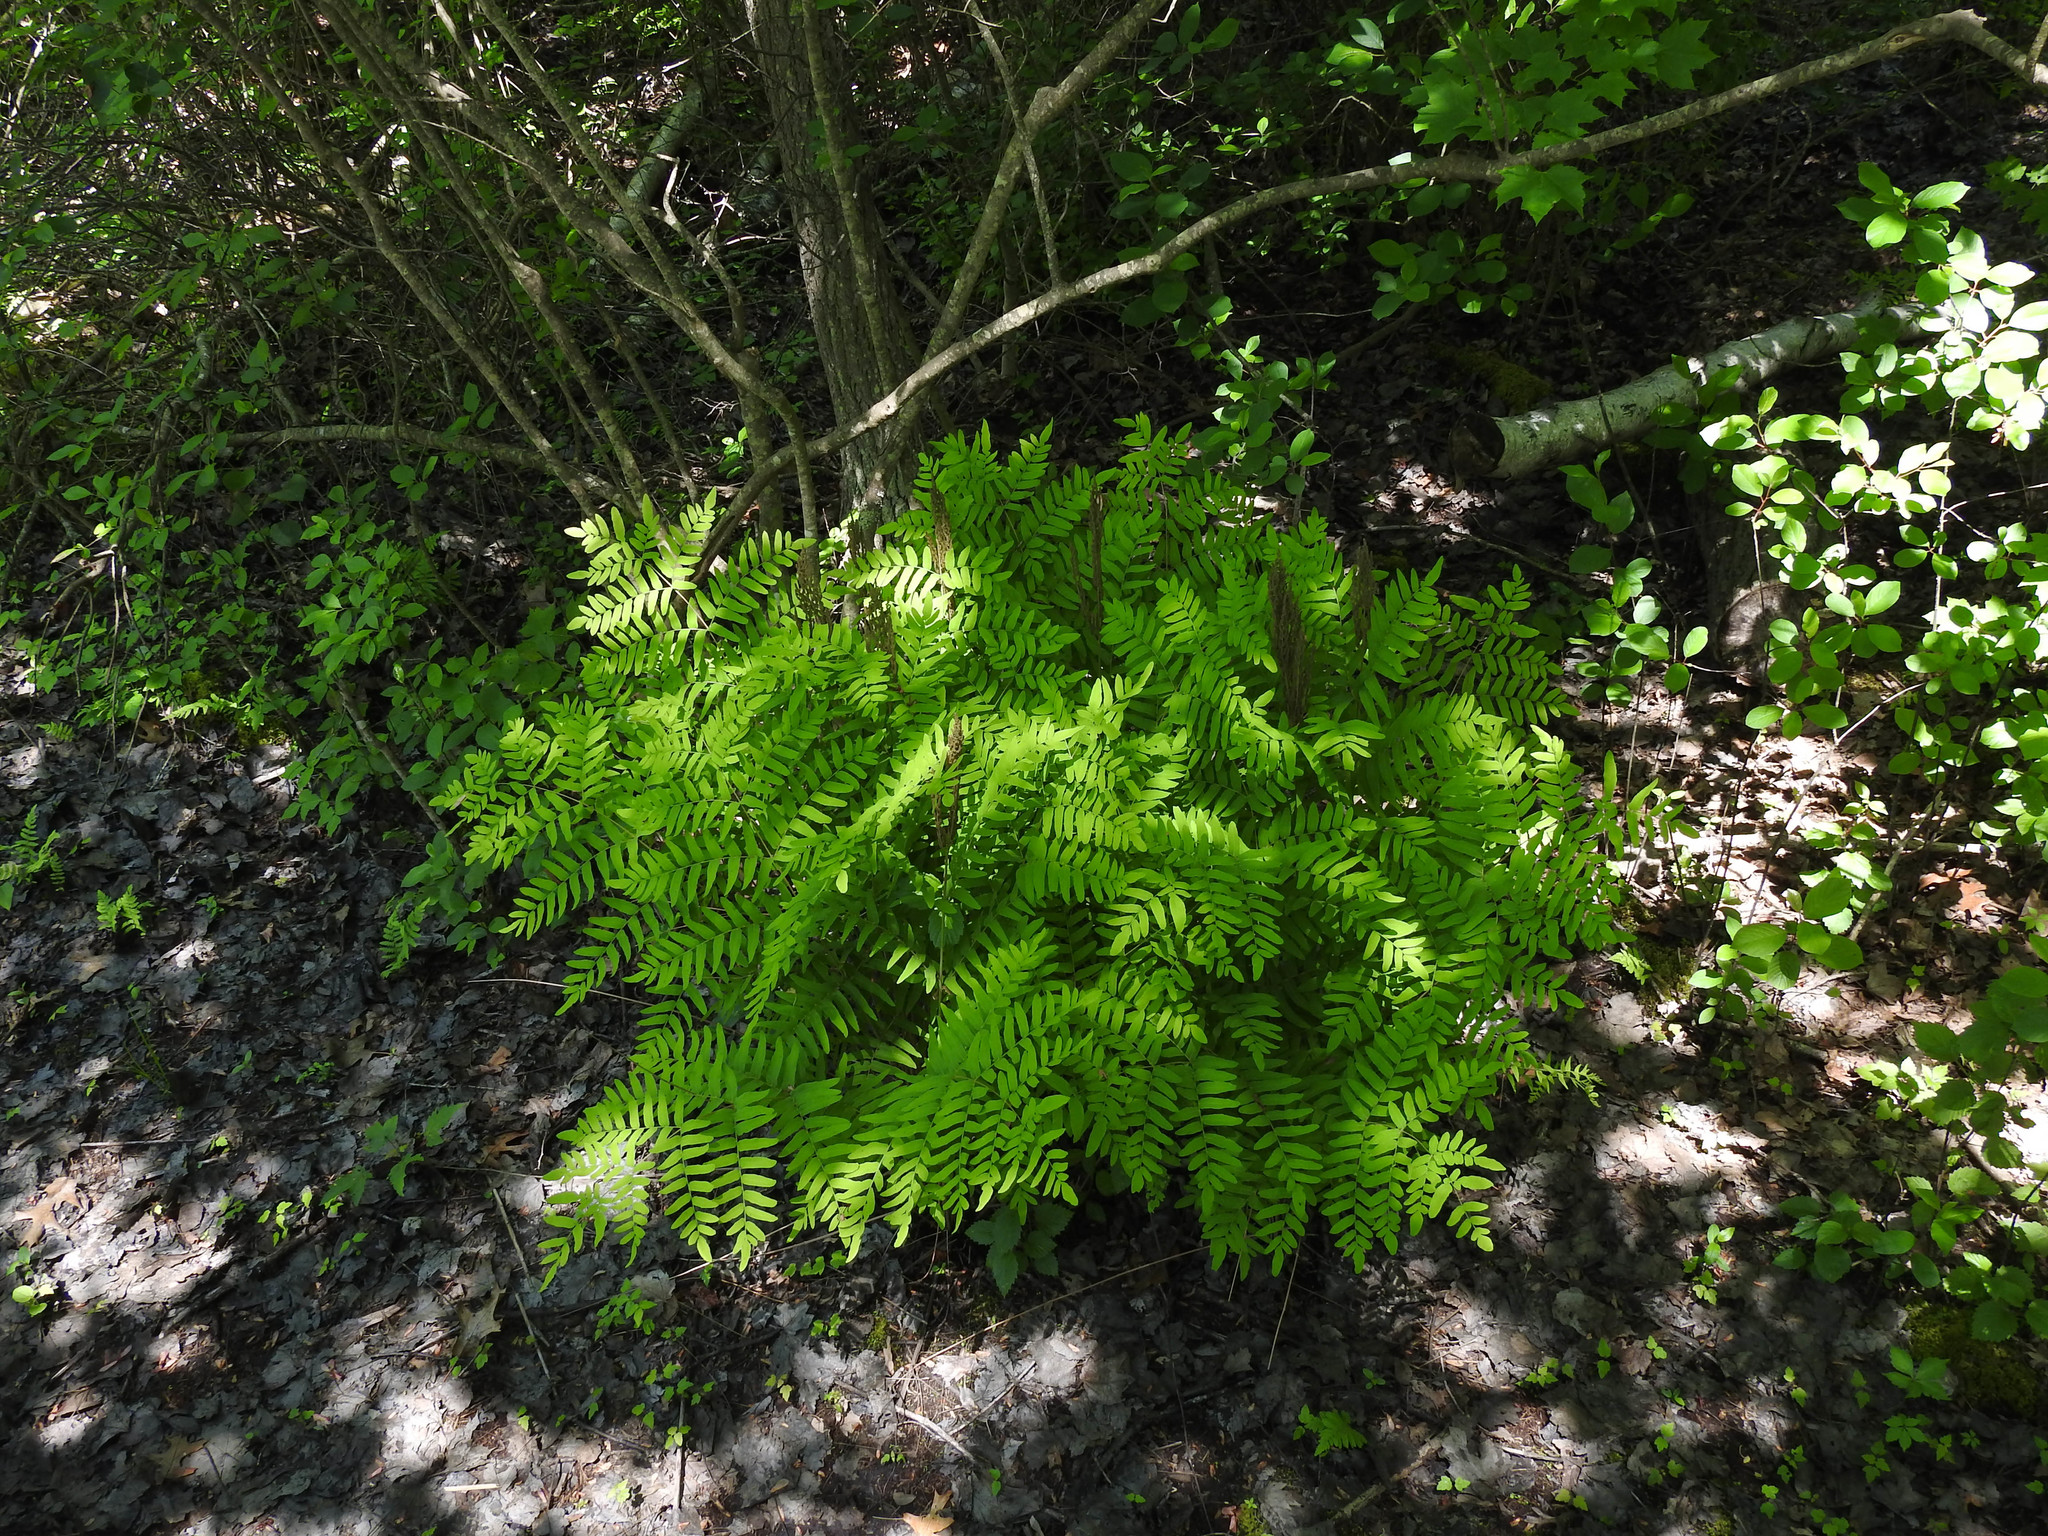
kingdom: Plantae
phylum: Tracheophyta
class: Polypodiopsida
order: Osmundales
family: Osmundaceae
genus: Osmunda
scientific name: Osmunda spectabilis
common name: American royal fern
